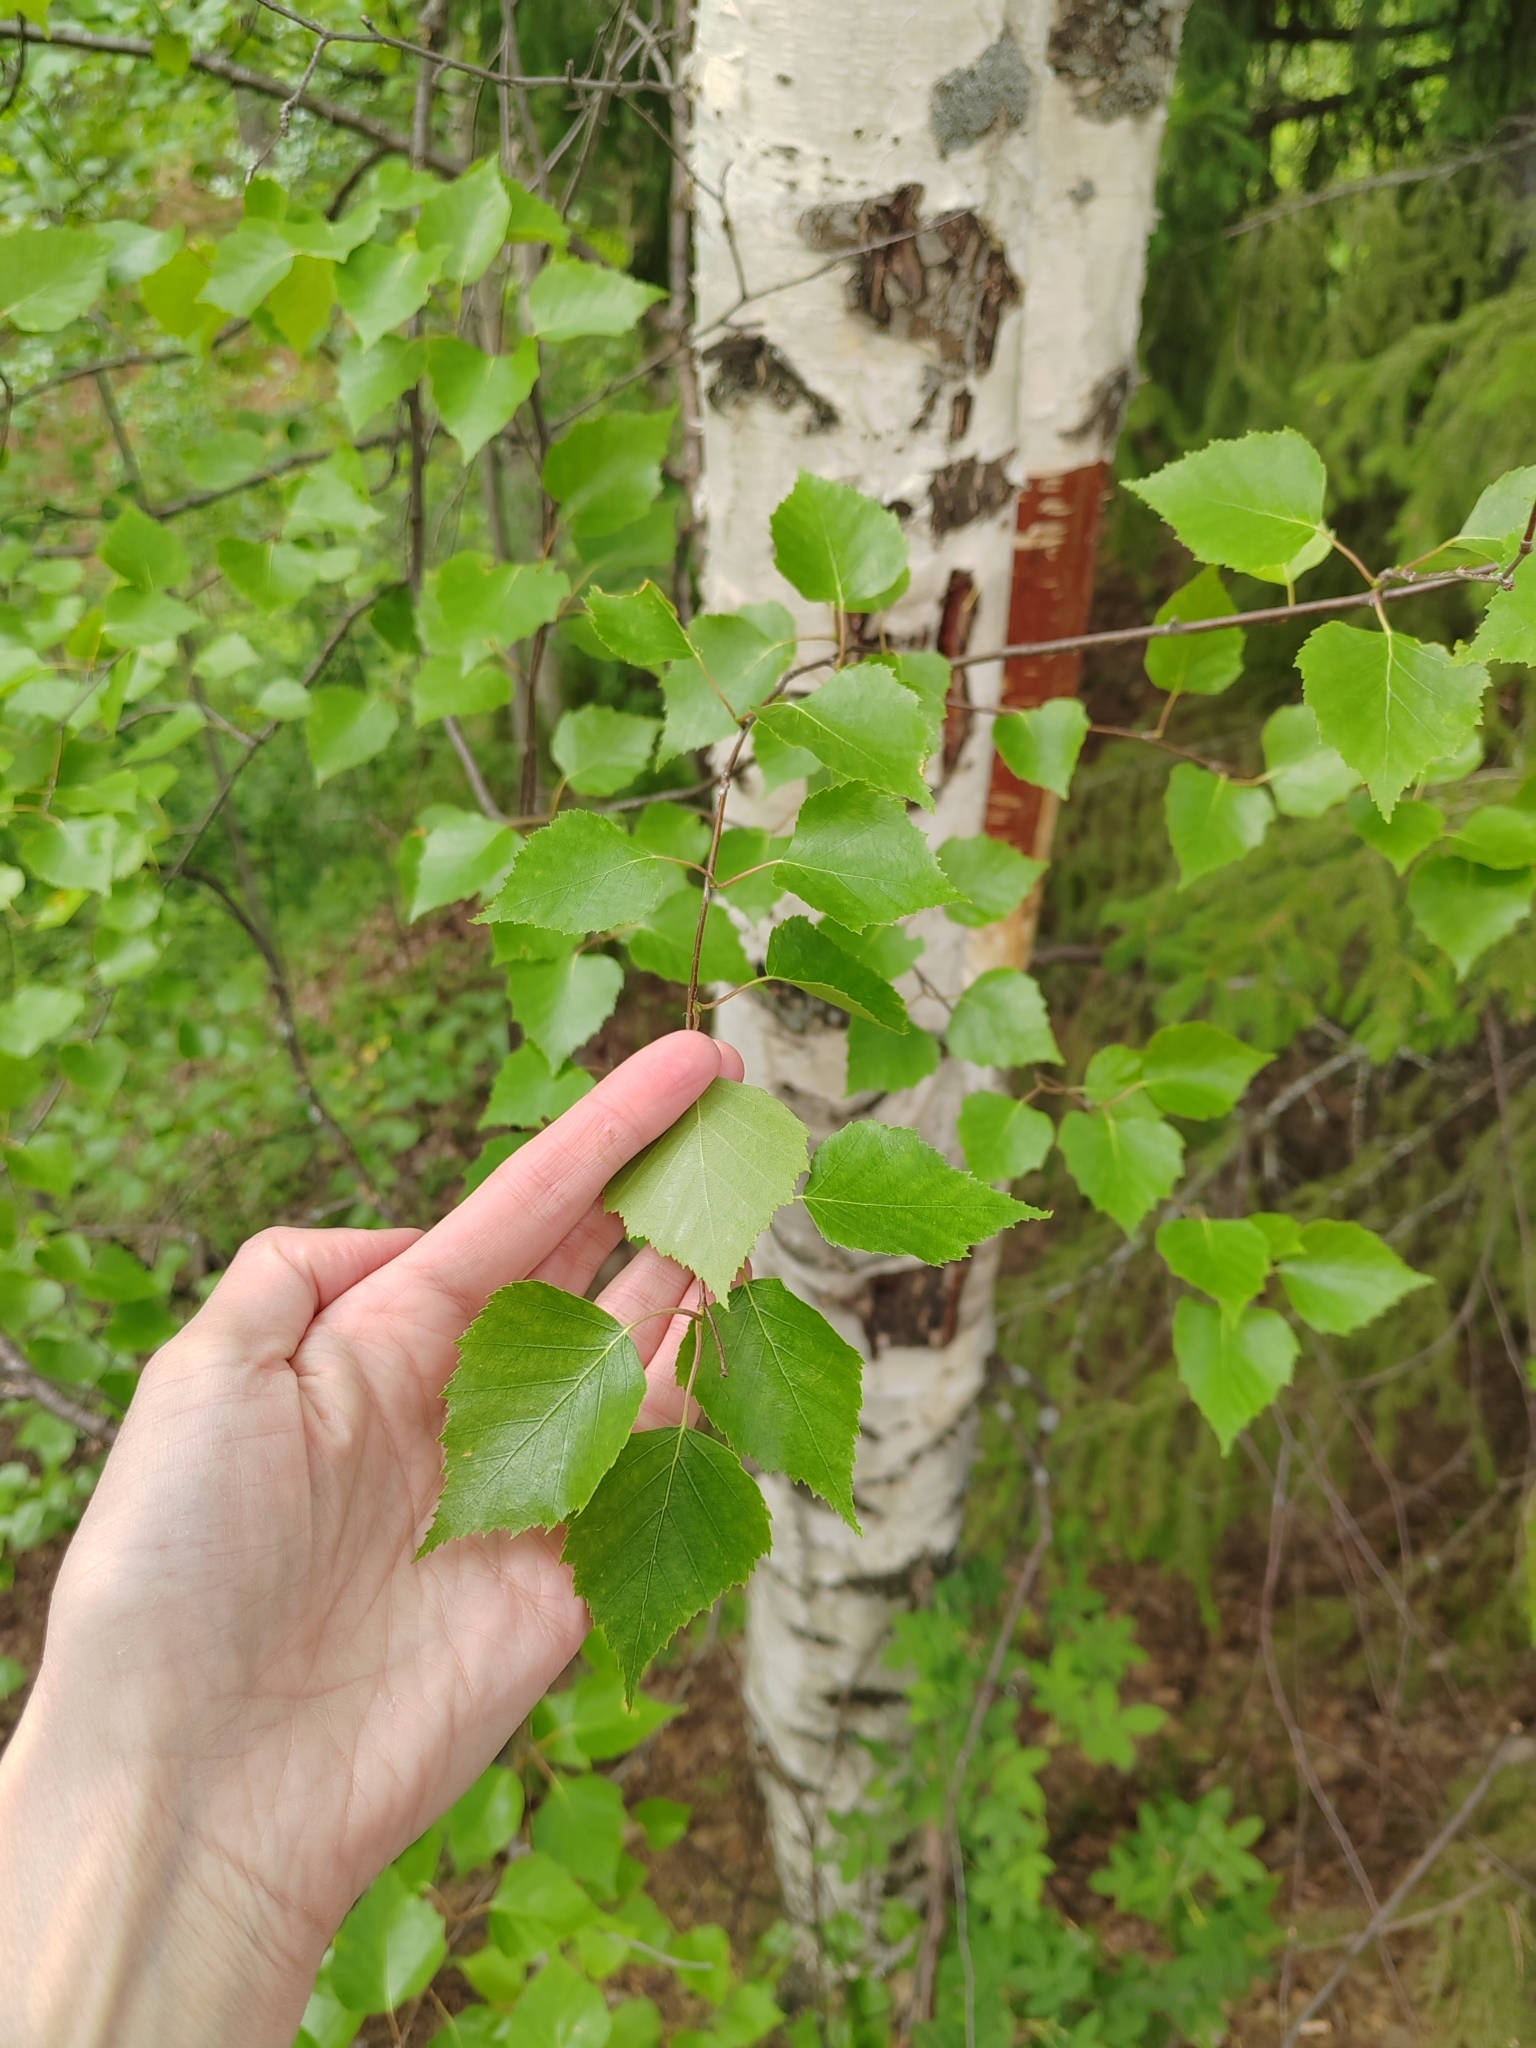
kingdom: Plantae
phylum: Tracheophyta
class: Magnoliopsida
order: Fagales
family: Betulaceae
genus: Betula
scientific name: Betula pendula
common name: Silver birch
